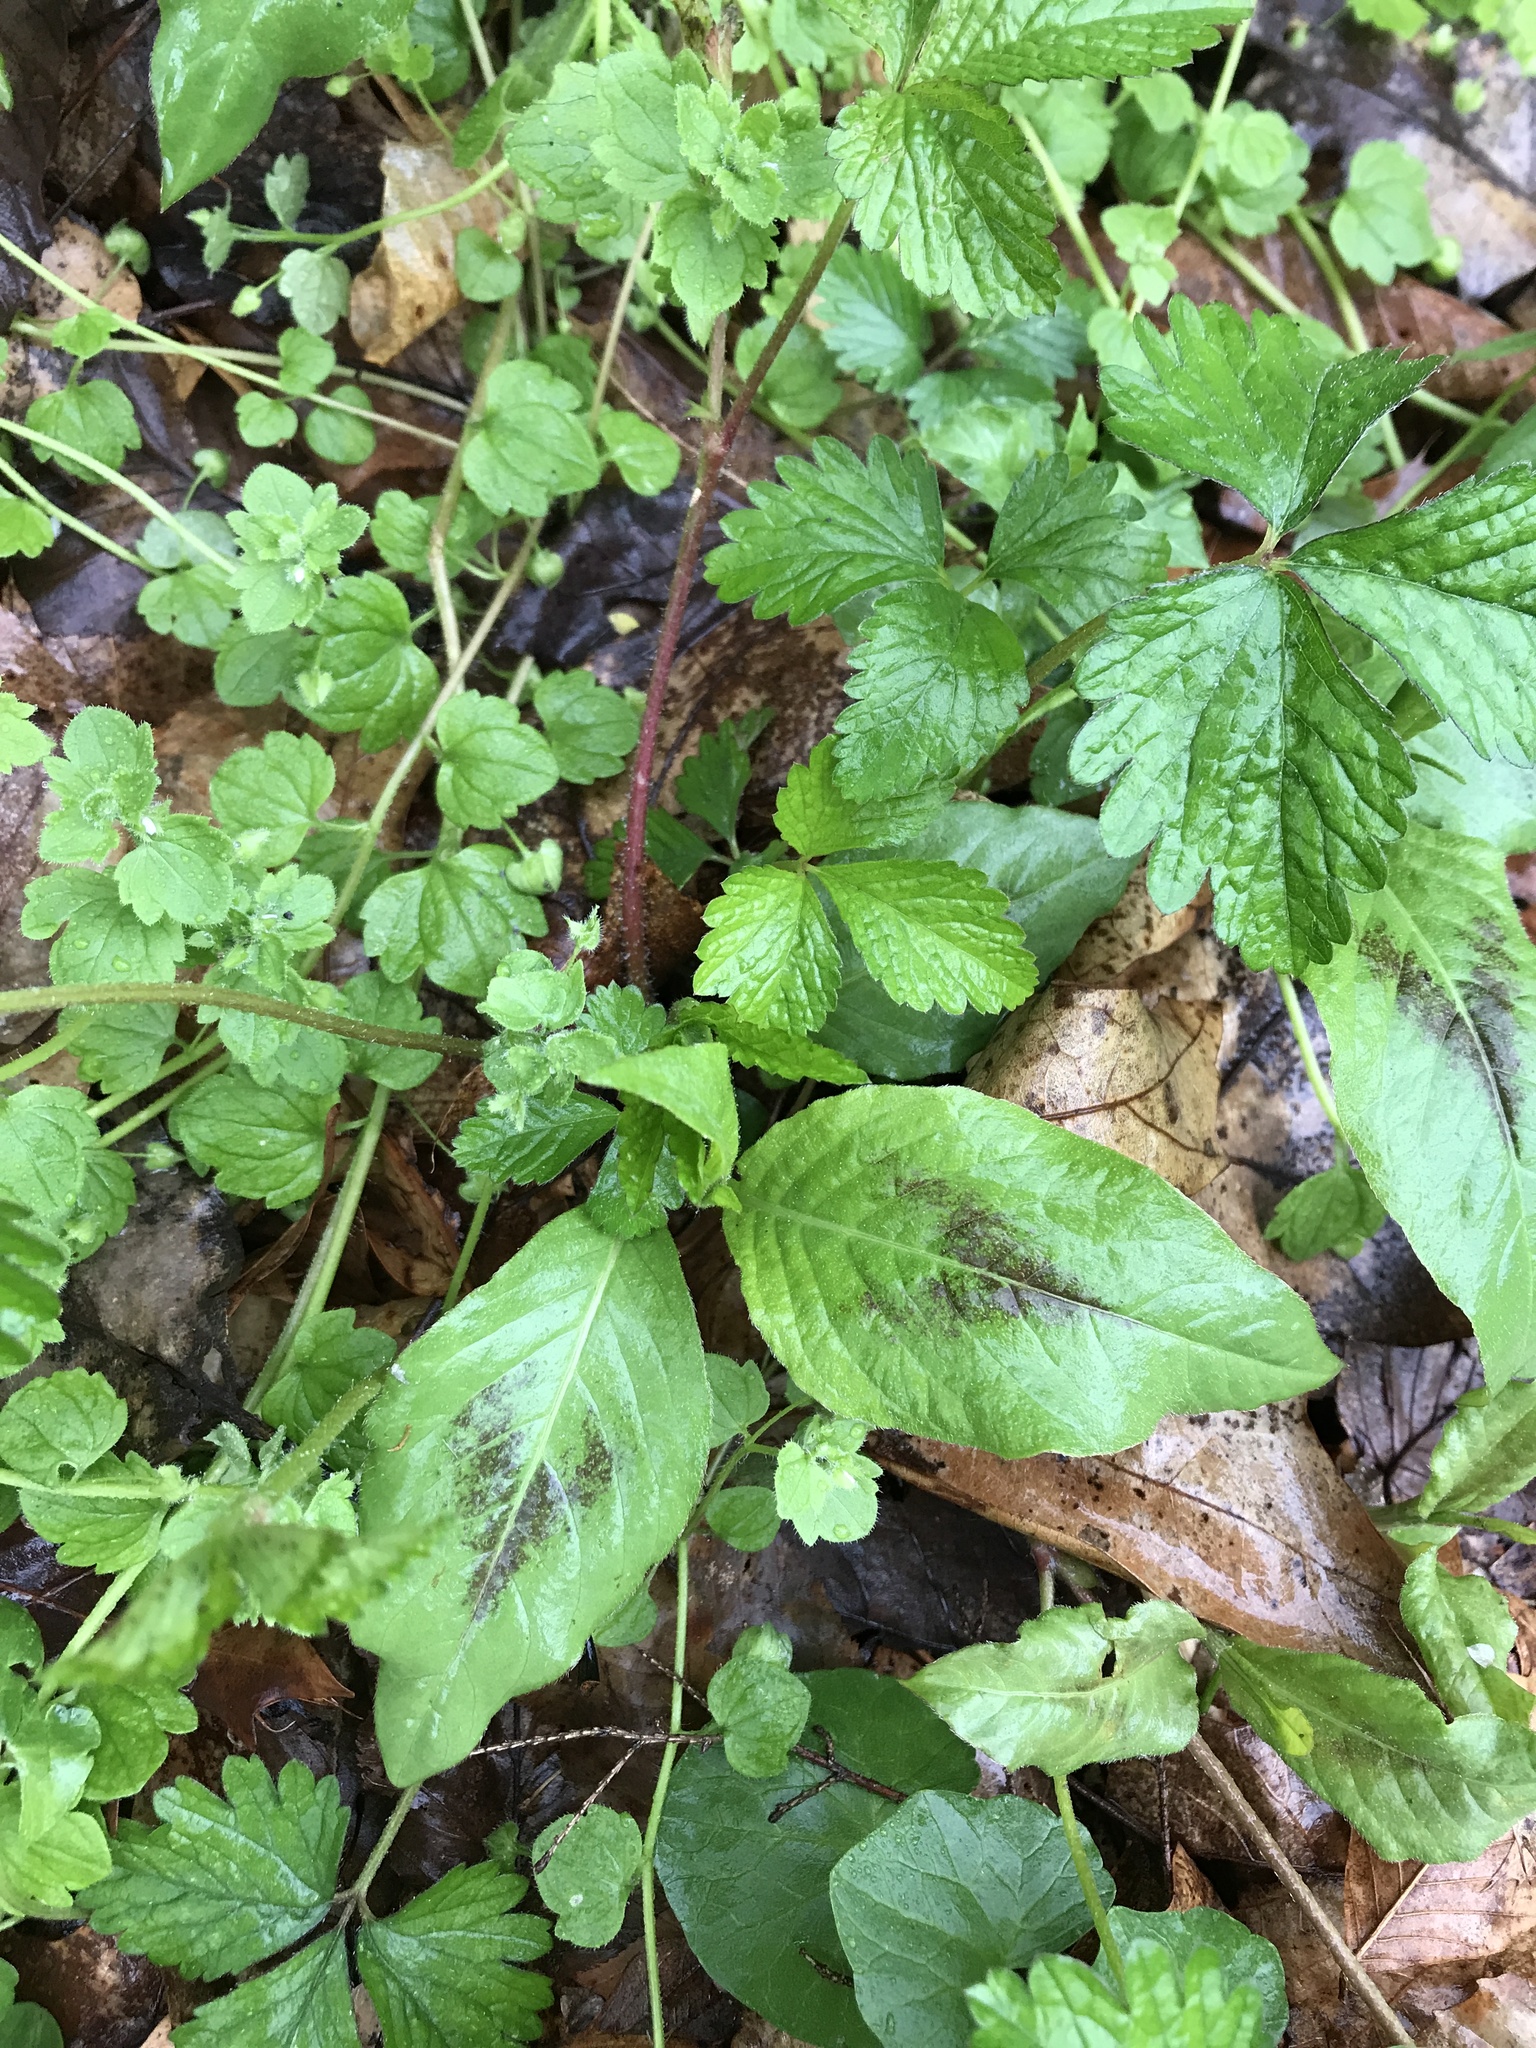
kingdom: Plantae
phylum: Tracheophyta
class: Magnoliopsida
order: Caryophyllales
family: Polygonaceae
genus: Persicaria
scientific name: Persicaria virginiana
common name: Jumpseed
